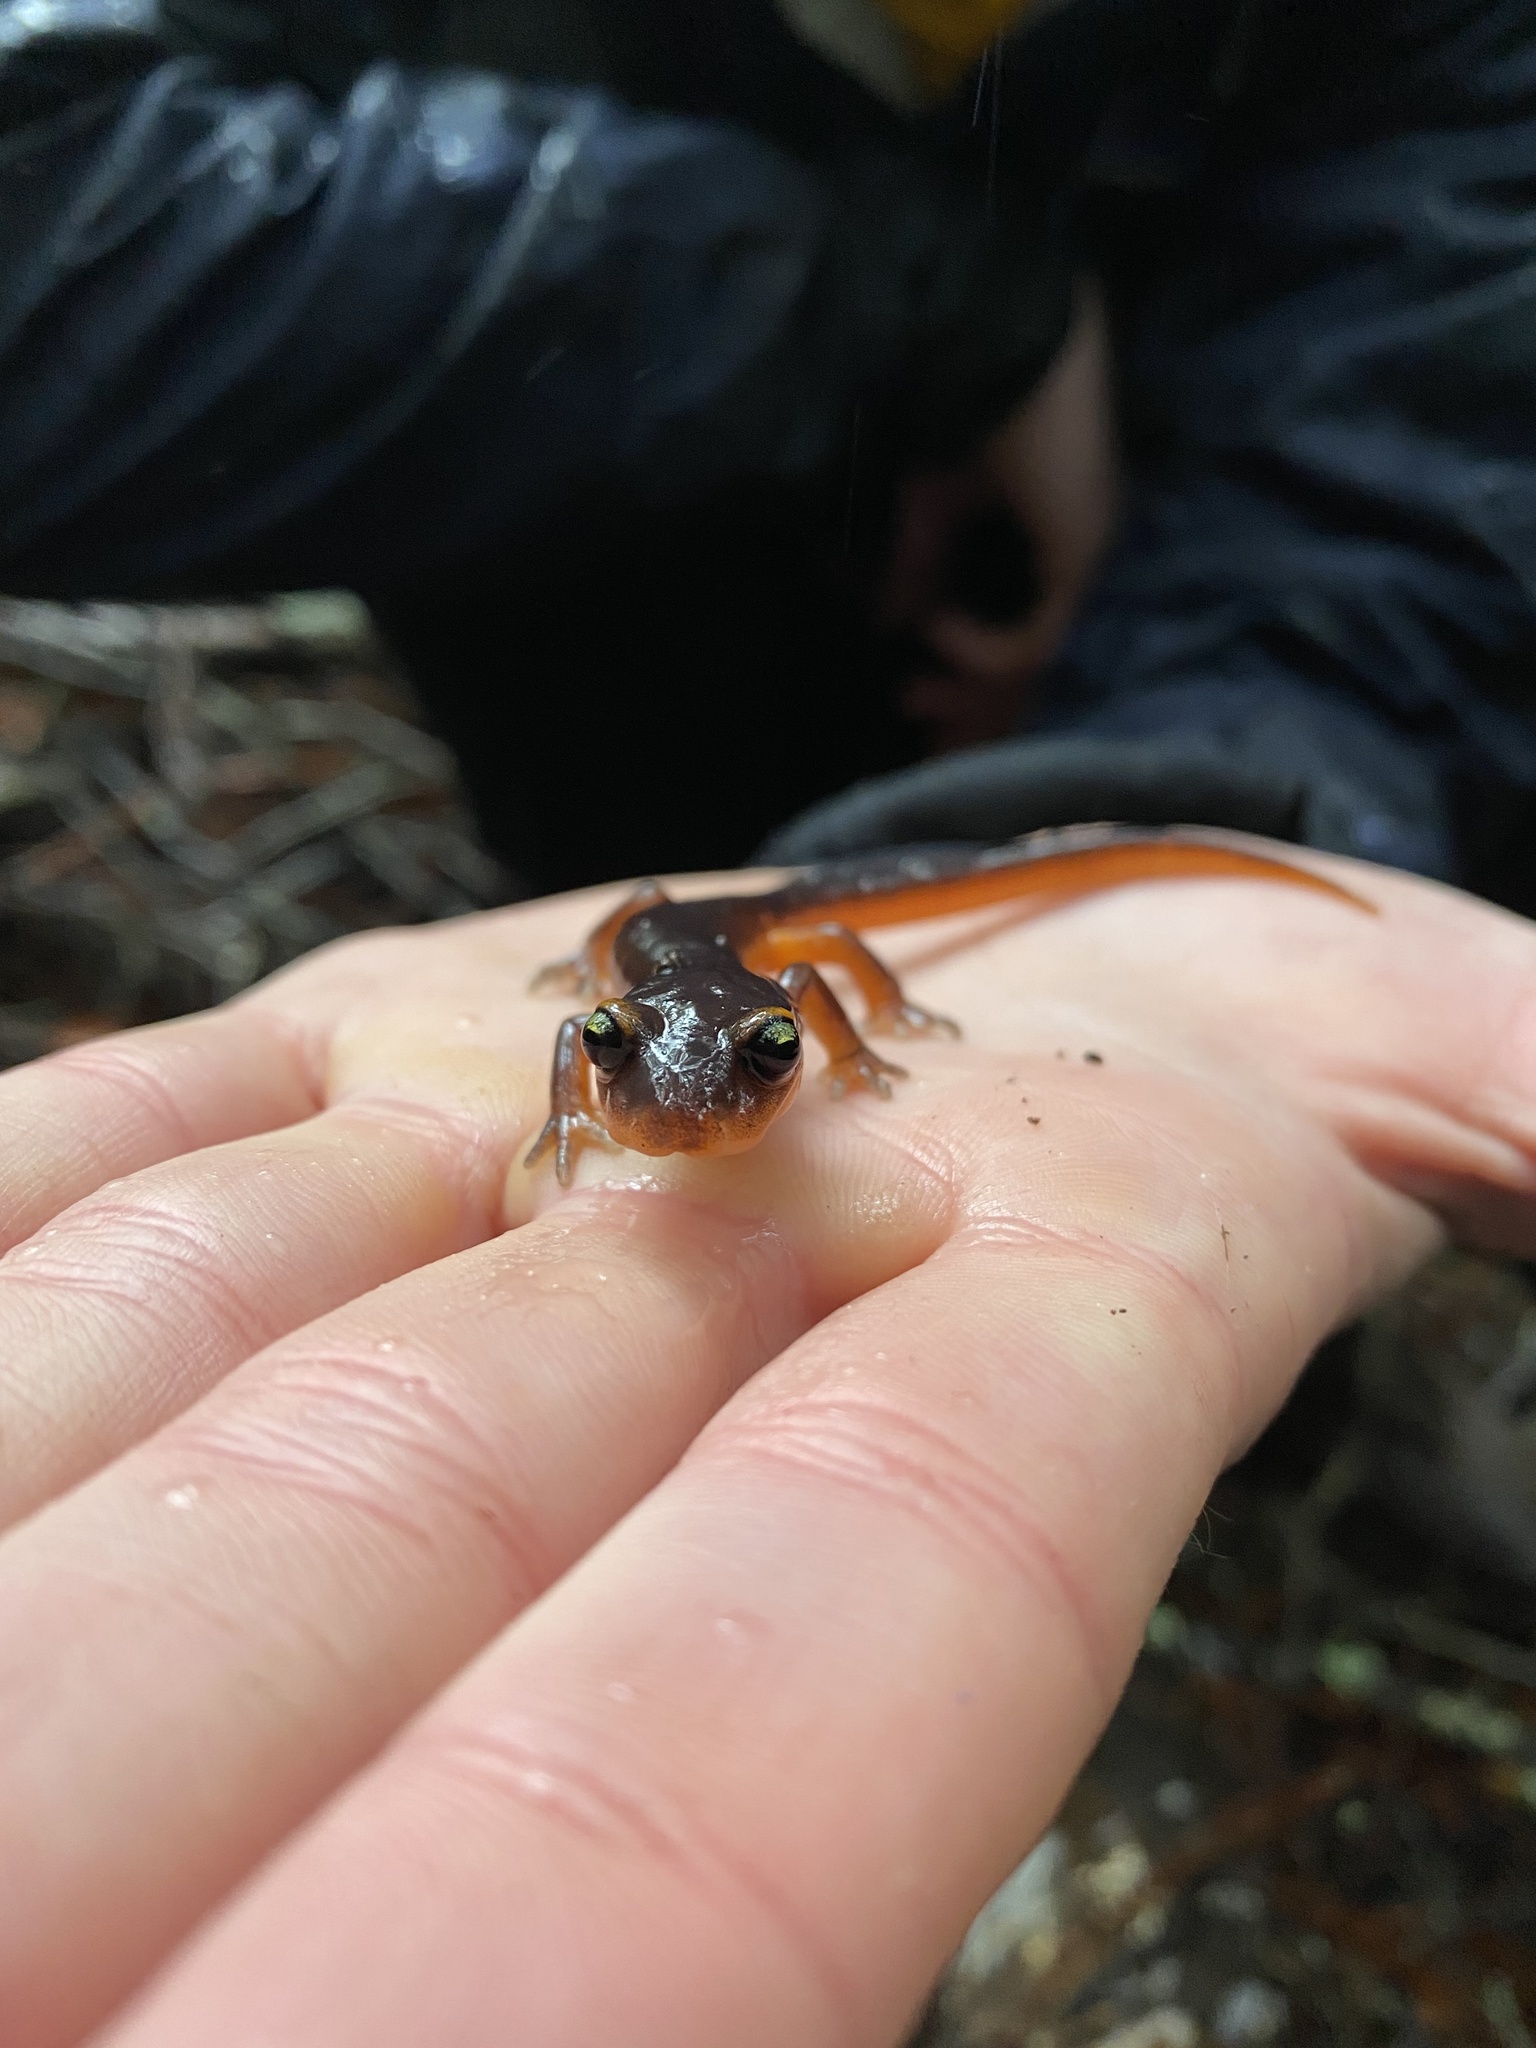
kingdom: Animalia
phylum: Chordata
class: Amphibia
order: Caudata
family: Plethodontidae
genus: Ensatina
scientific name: Ensatina eschscholtzii
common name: Ensatina
